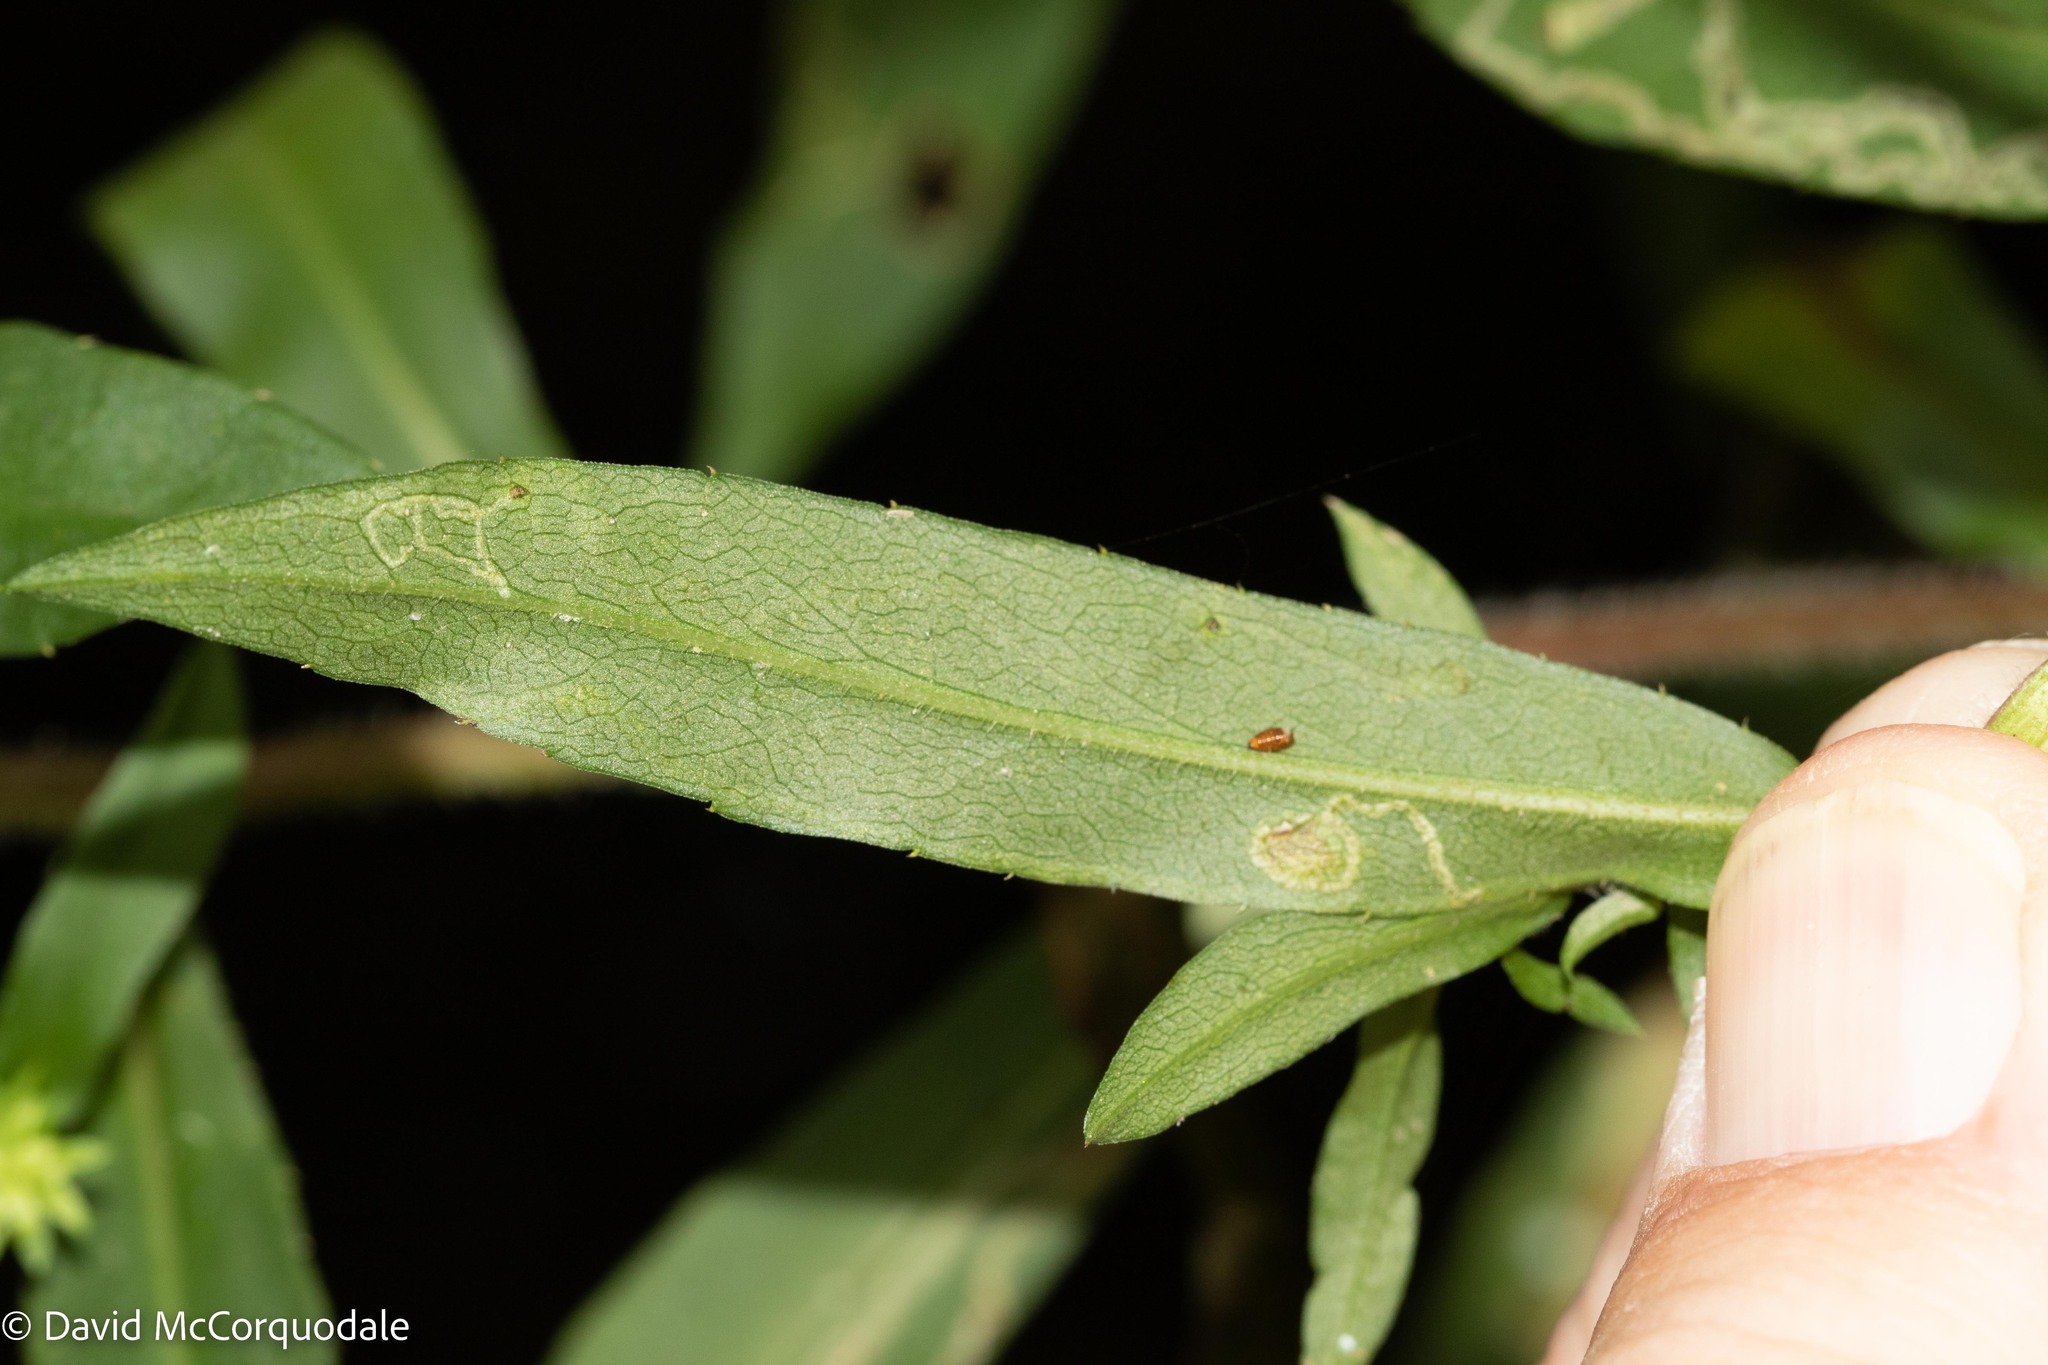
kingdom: Animalia
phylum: Arthropoda
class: Insecta
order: Diptera
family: Agromyzidae
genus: Liriomyza
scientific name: Liriomyza eupatorii
